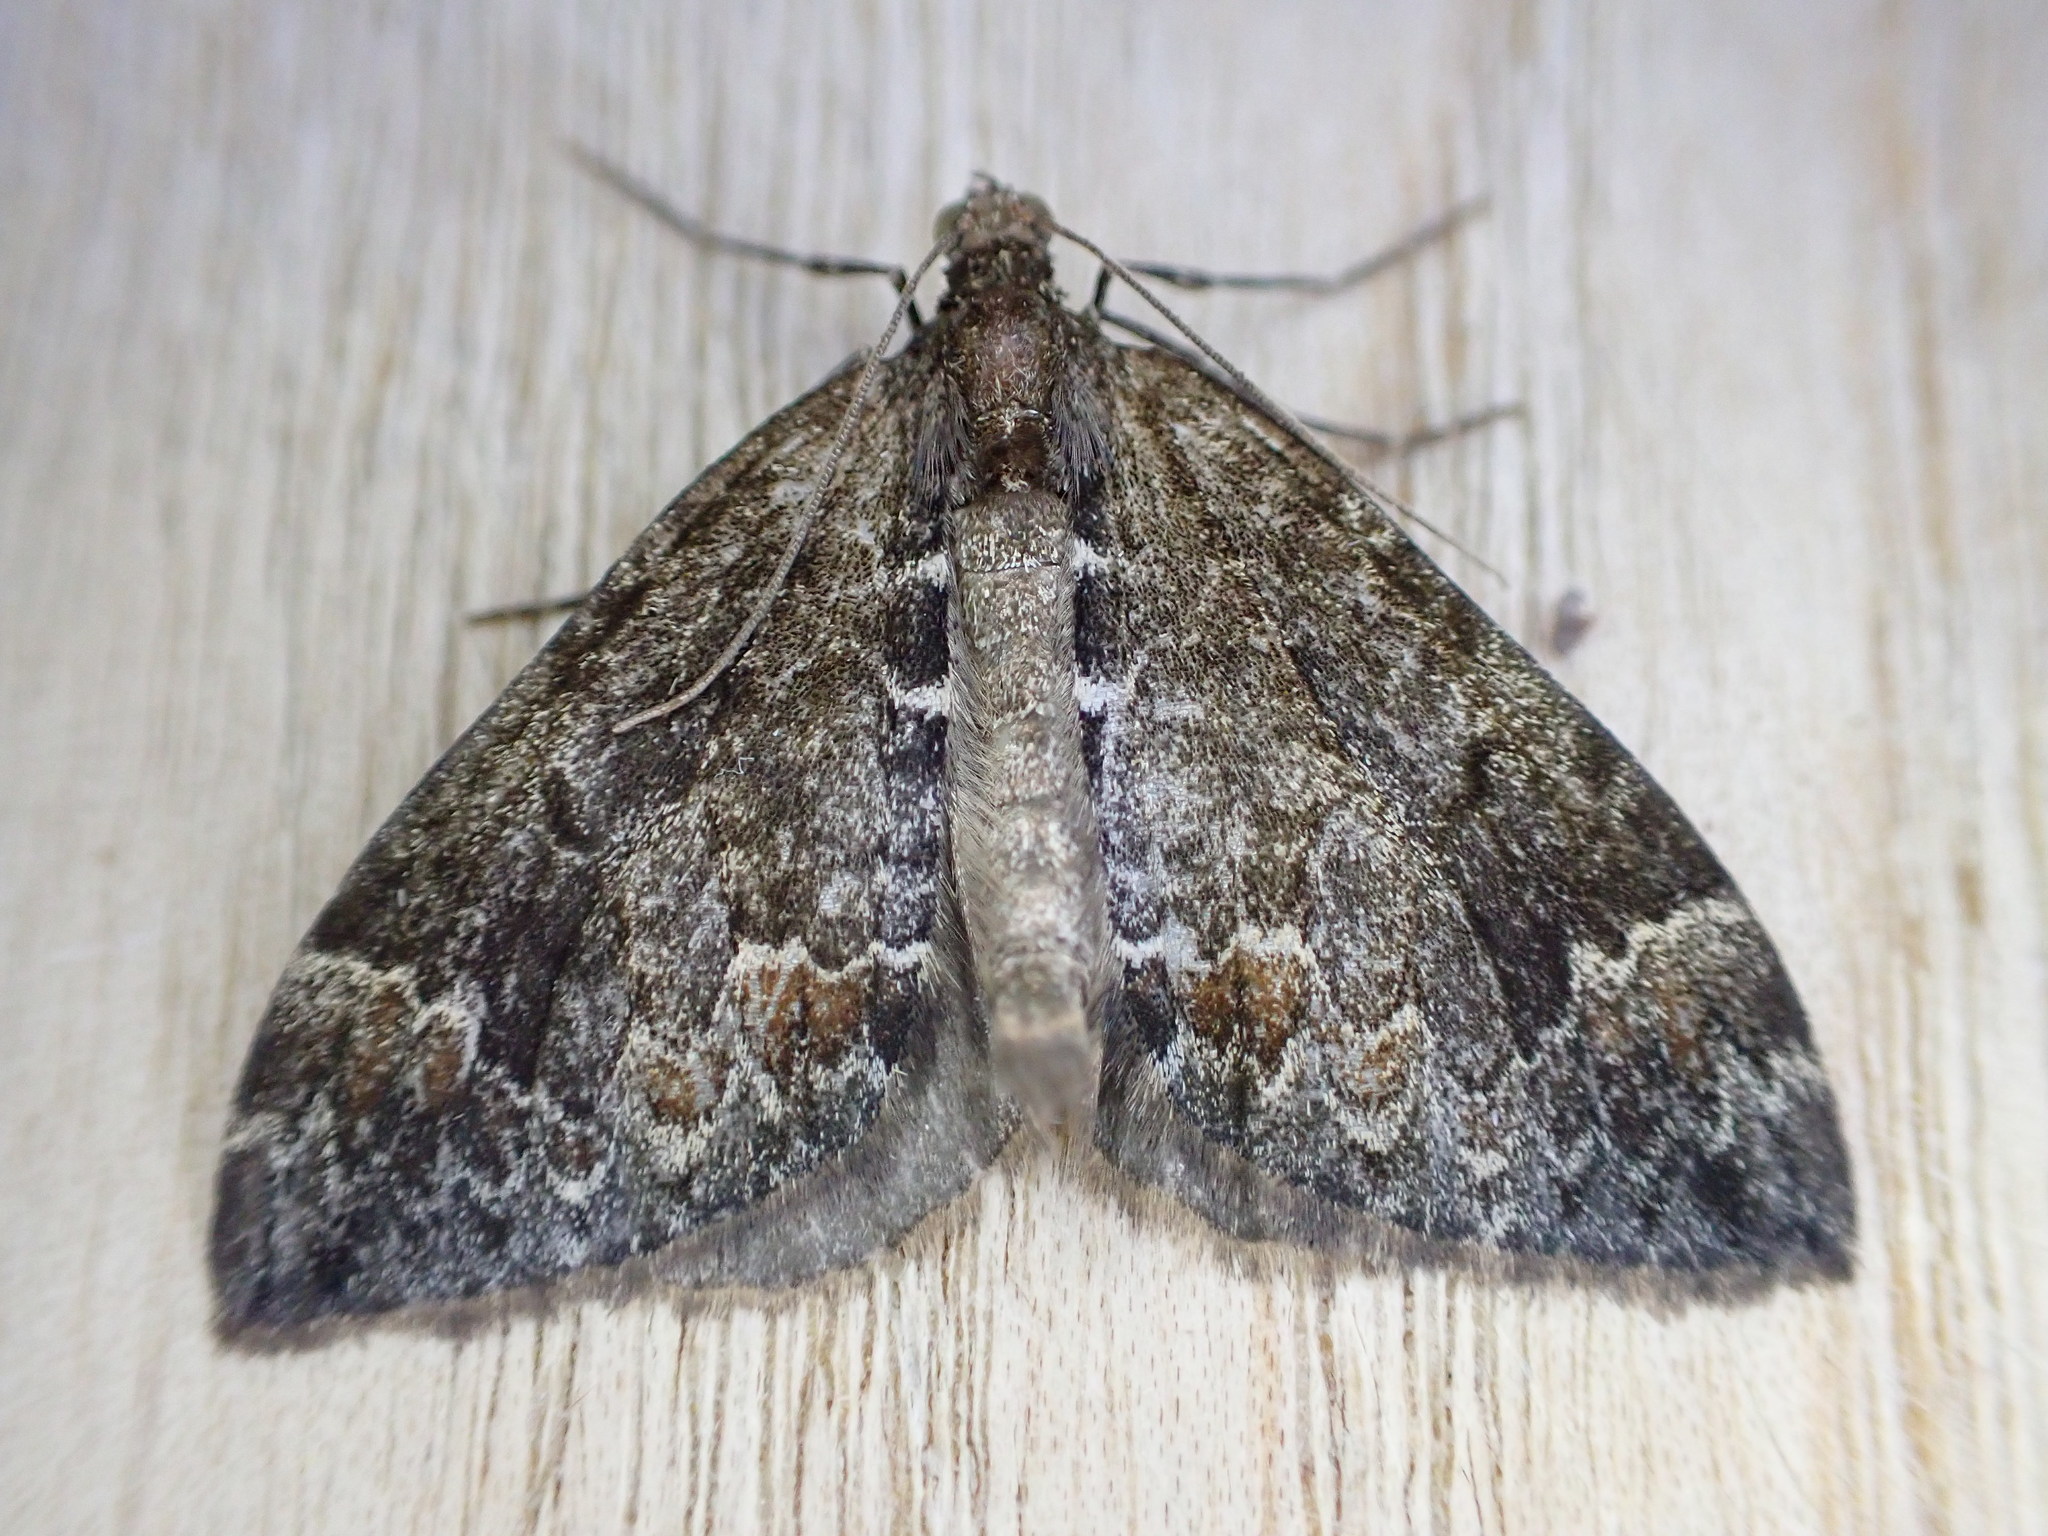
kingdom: Animalia
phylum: Arthropoda
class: Insecta
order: Lepidoptera
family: Geometridae
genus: Dysstroma
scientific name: Dysstroma truncata
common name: Common marbled carpet
